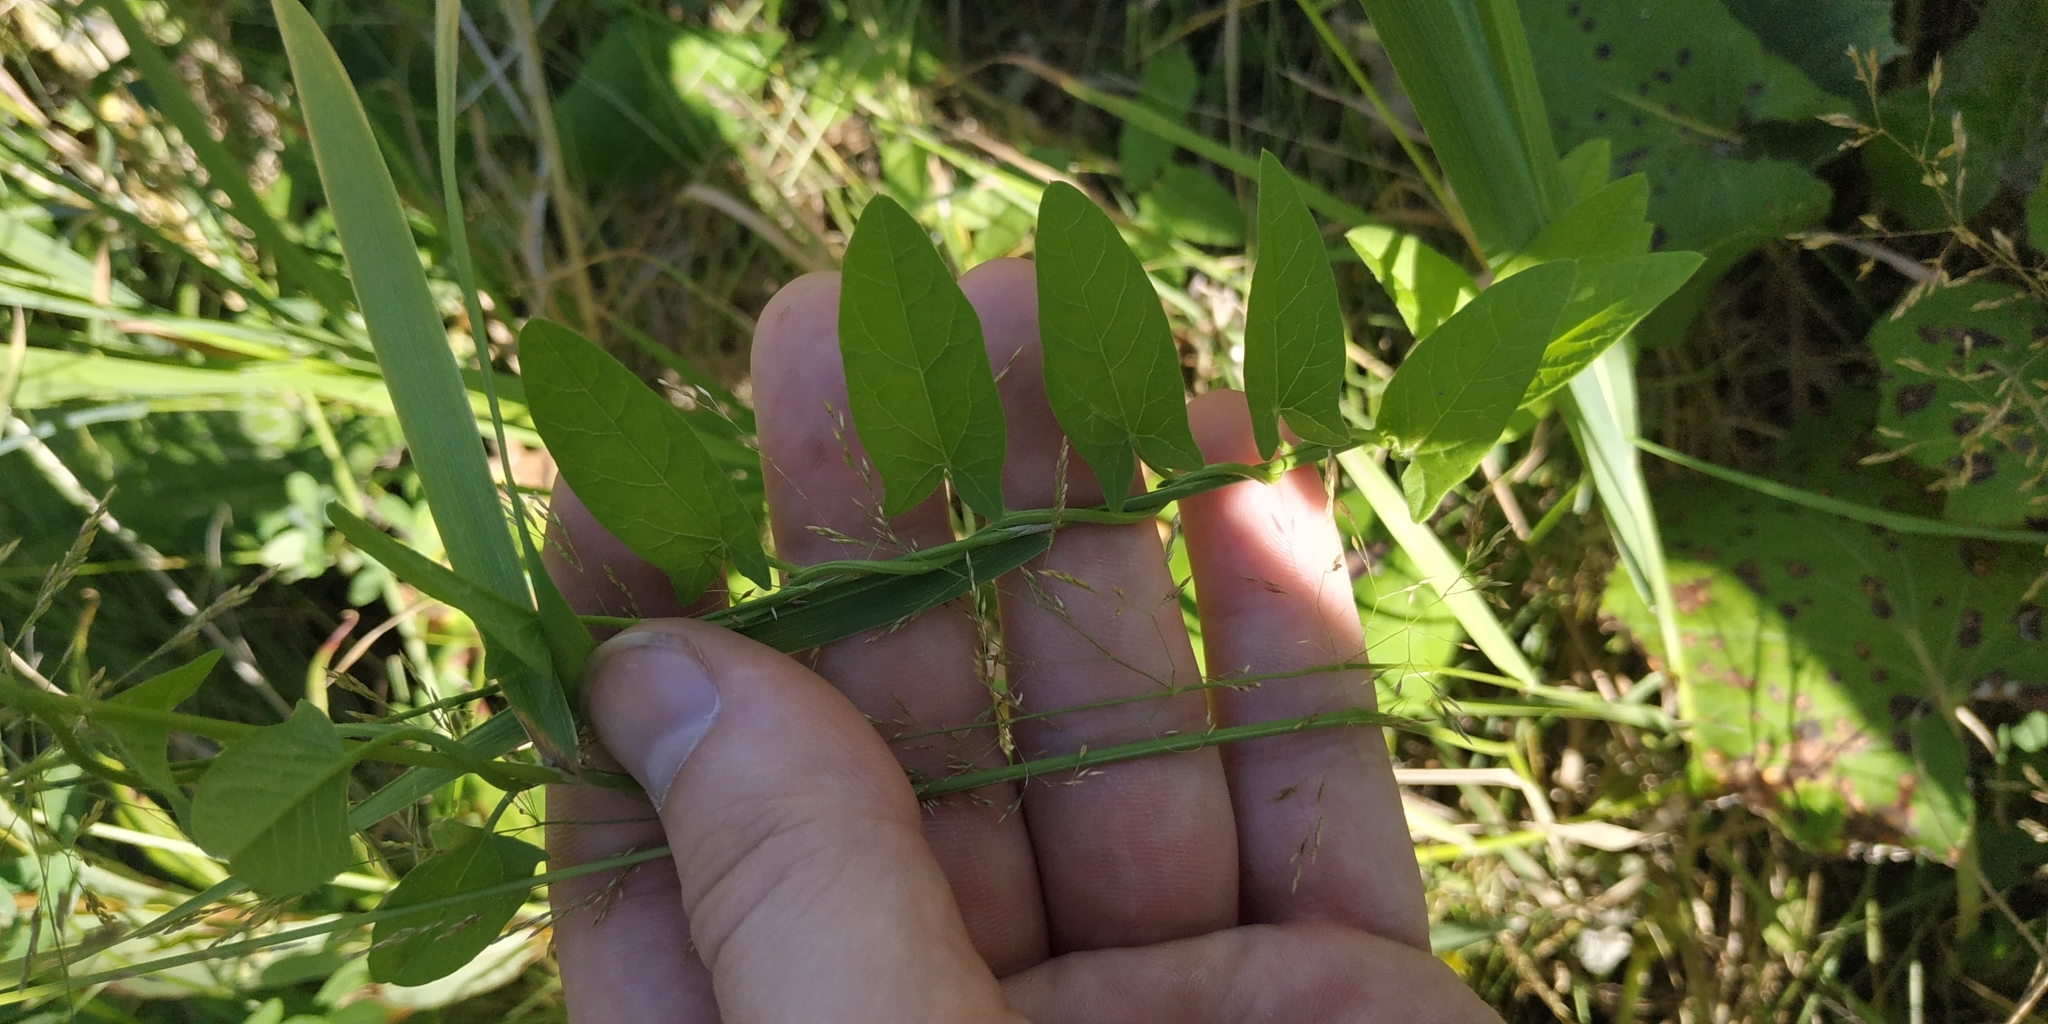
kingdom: Plantae
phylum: Tracheophyta
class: Magnoliopsida
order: Solanales
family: Convolvulaceae
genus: Convolvulus
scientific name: Convolvulus arvensis
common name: Field bindweed
